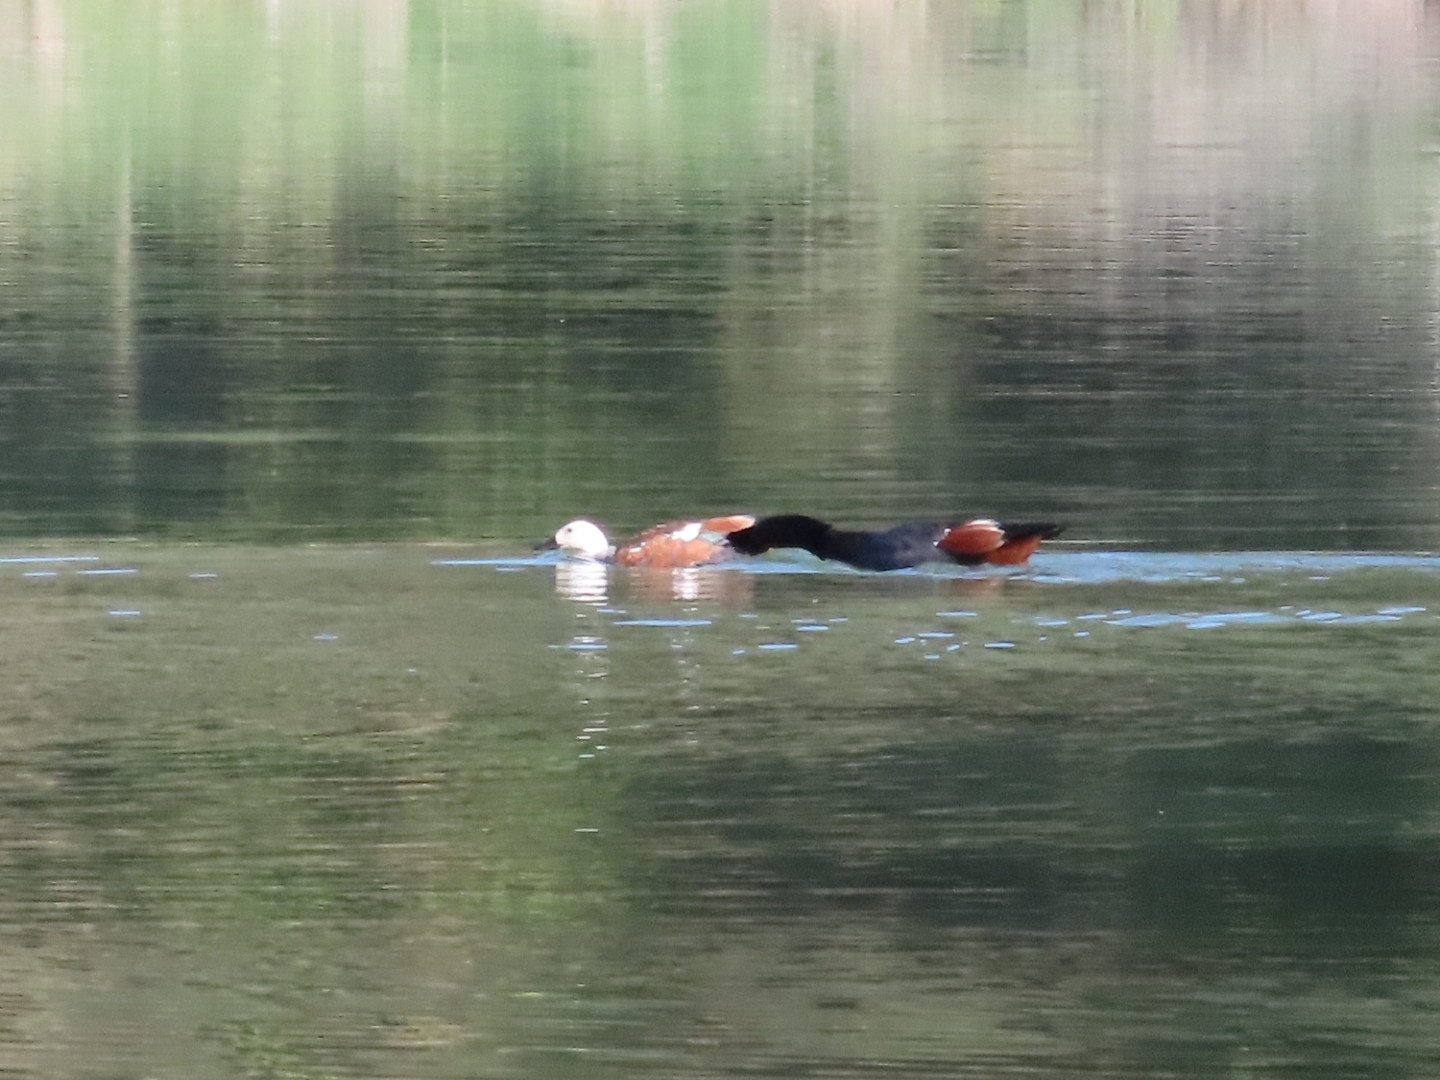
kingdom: Animalia
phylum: Chordata
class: Aves
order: Anseriformes
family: Anatidae
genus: Tadorna
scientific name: Tadorna variegata
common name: Paradise shelduck
